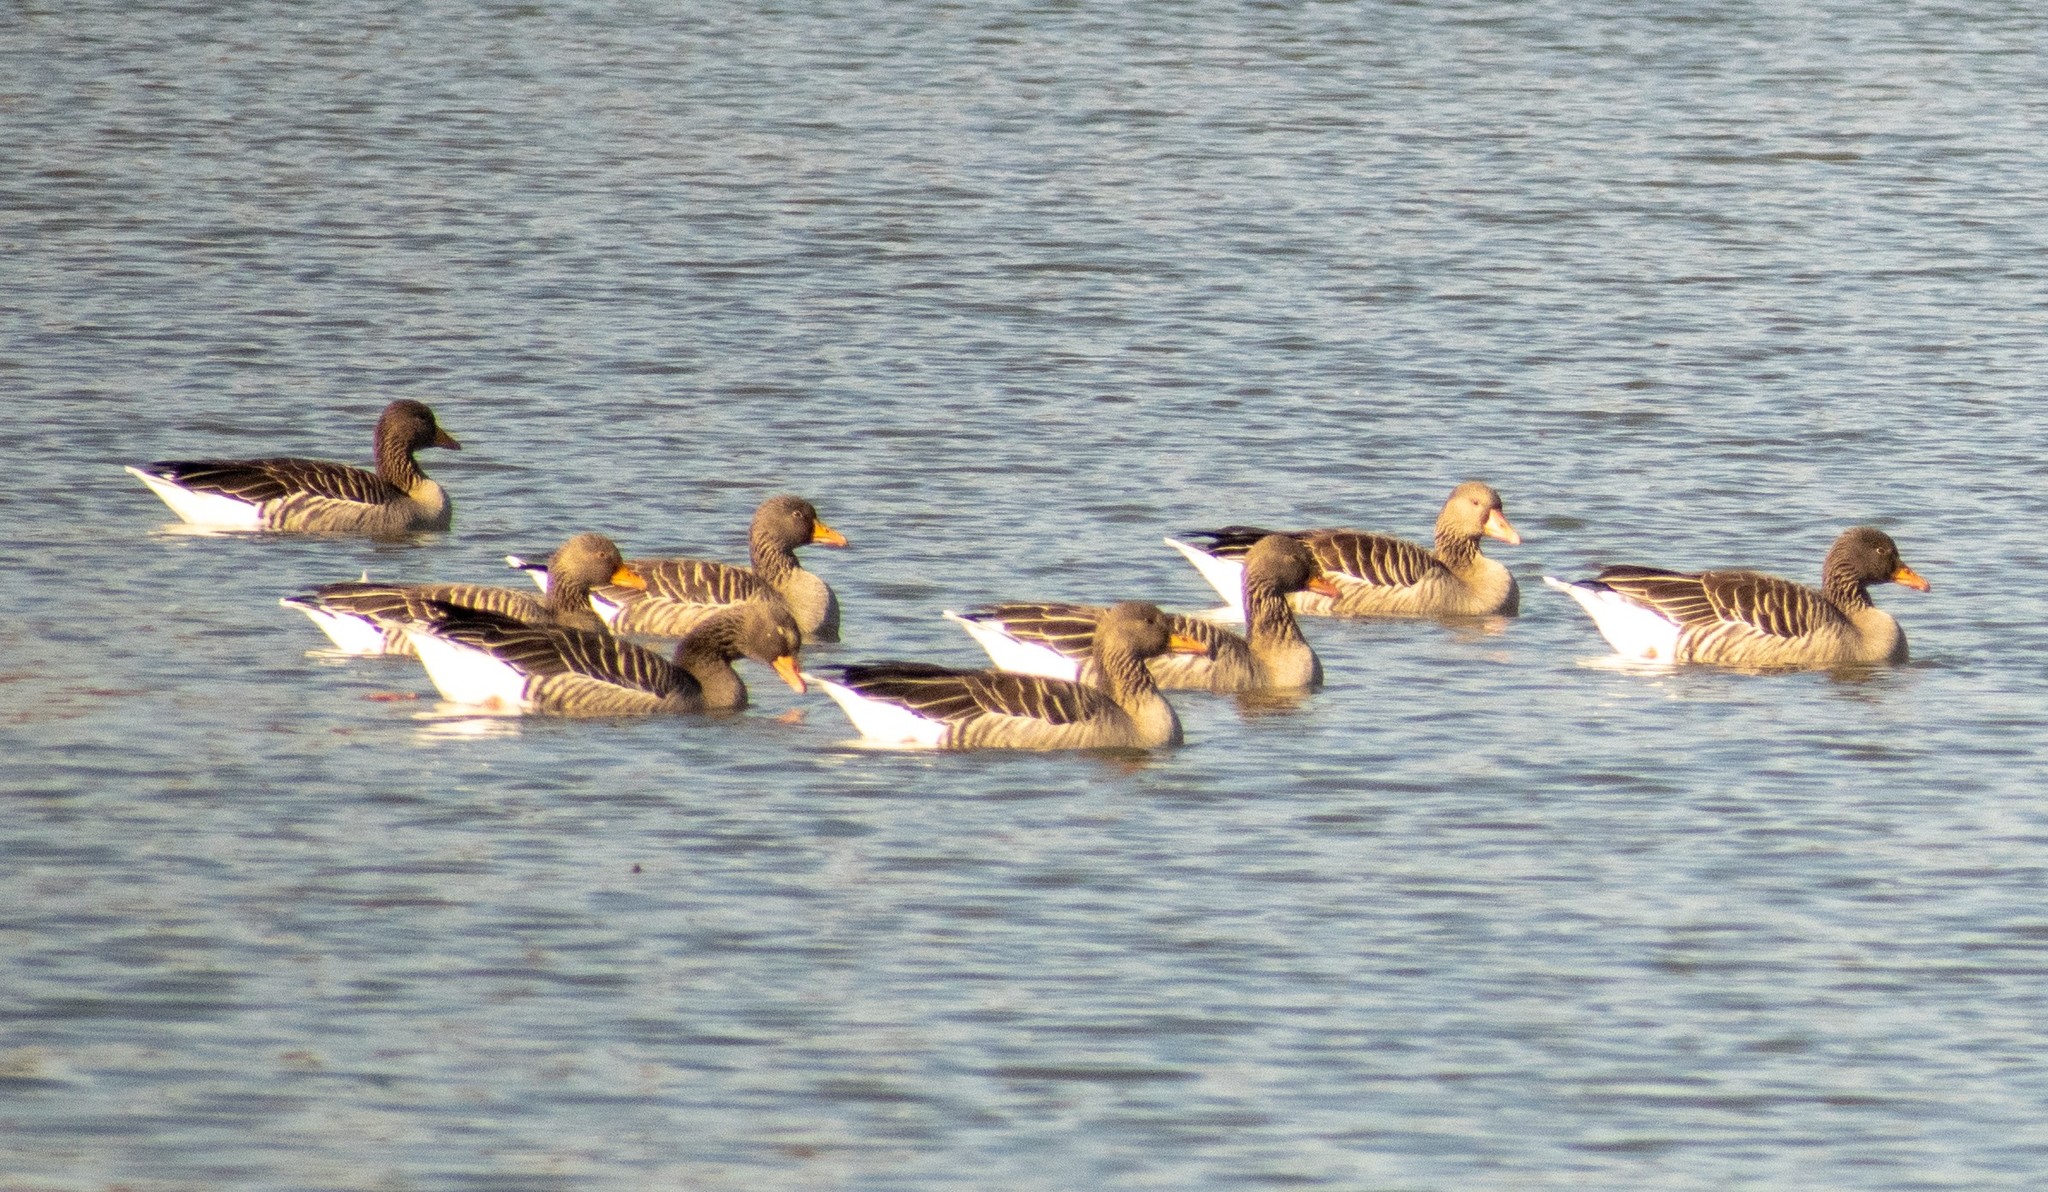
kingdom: Animalia
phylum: Chordata
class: Aves
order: Anseriformes
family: Anatidae
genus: Anser
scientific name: Anser anser
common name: Greylag goose
